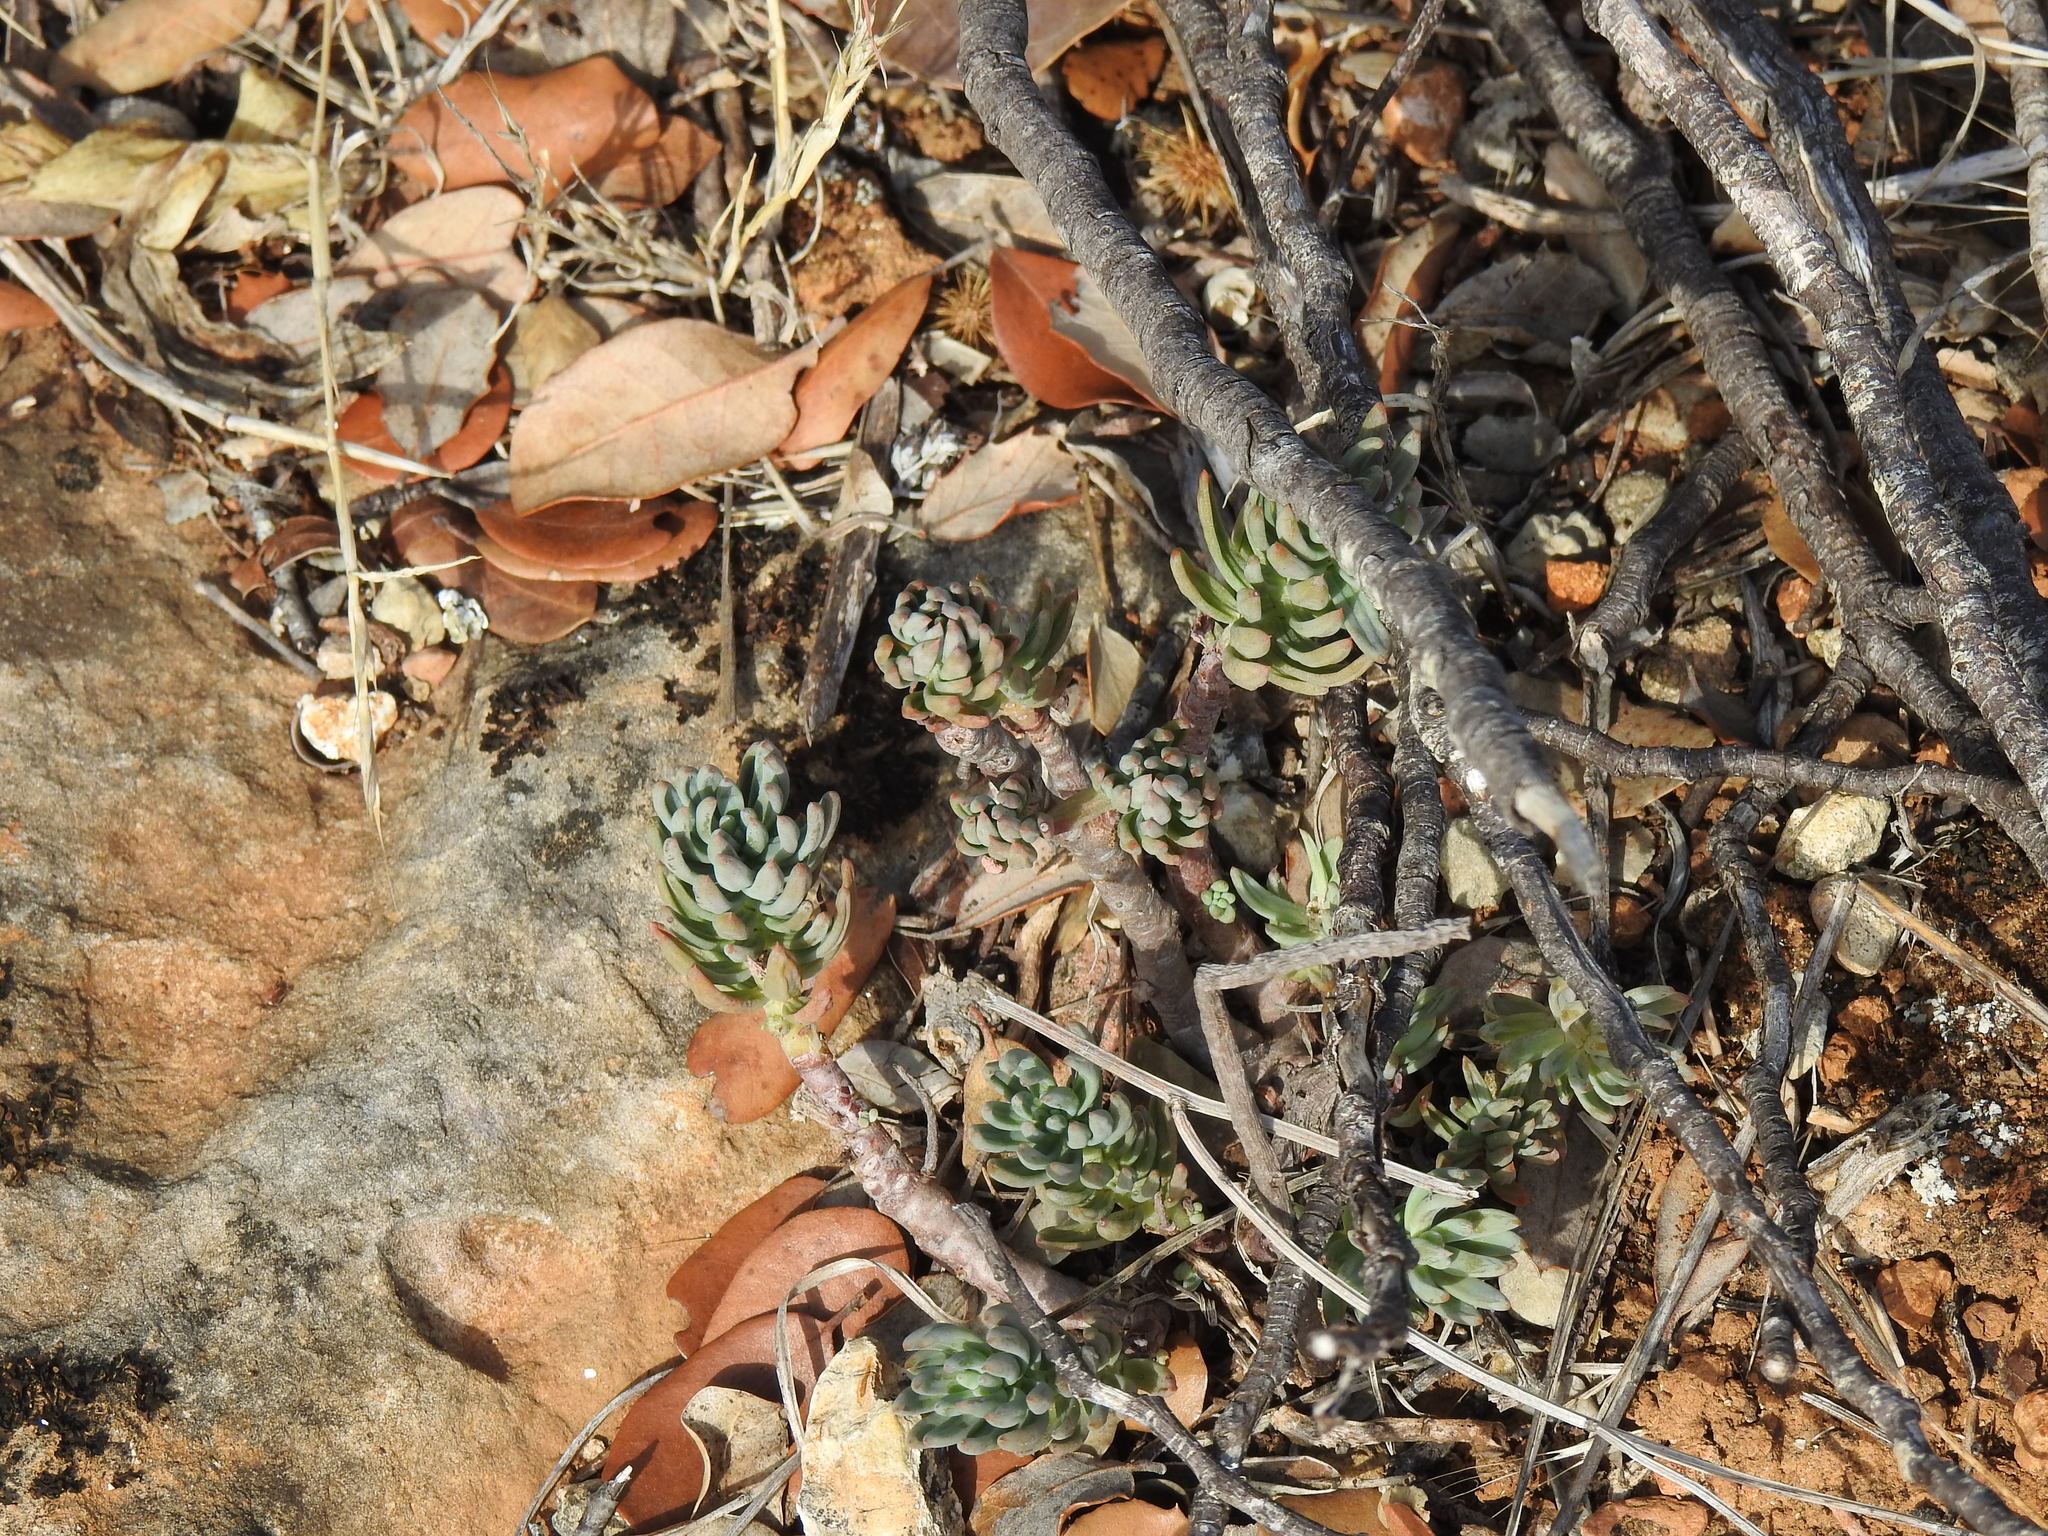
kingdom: Plantae
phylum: Tracheophyta
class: Magnoliopsida
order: Saxifragales
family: Crassulaceae
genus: Petrosedum
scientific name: Petrosedum sediforme
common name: Pale stonecrop
